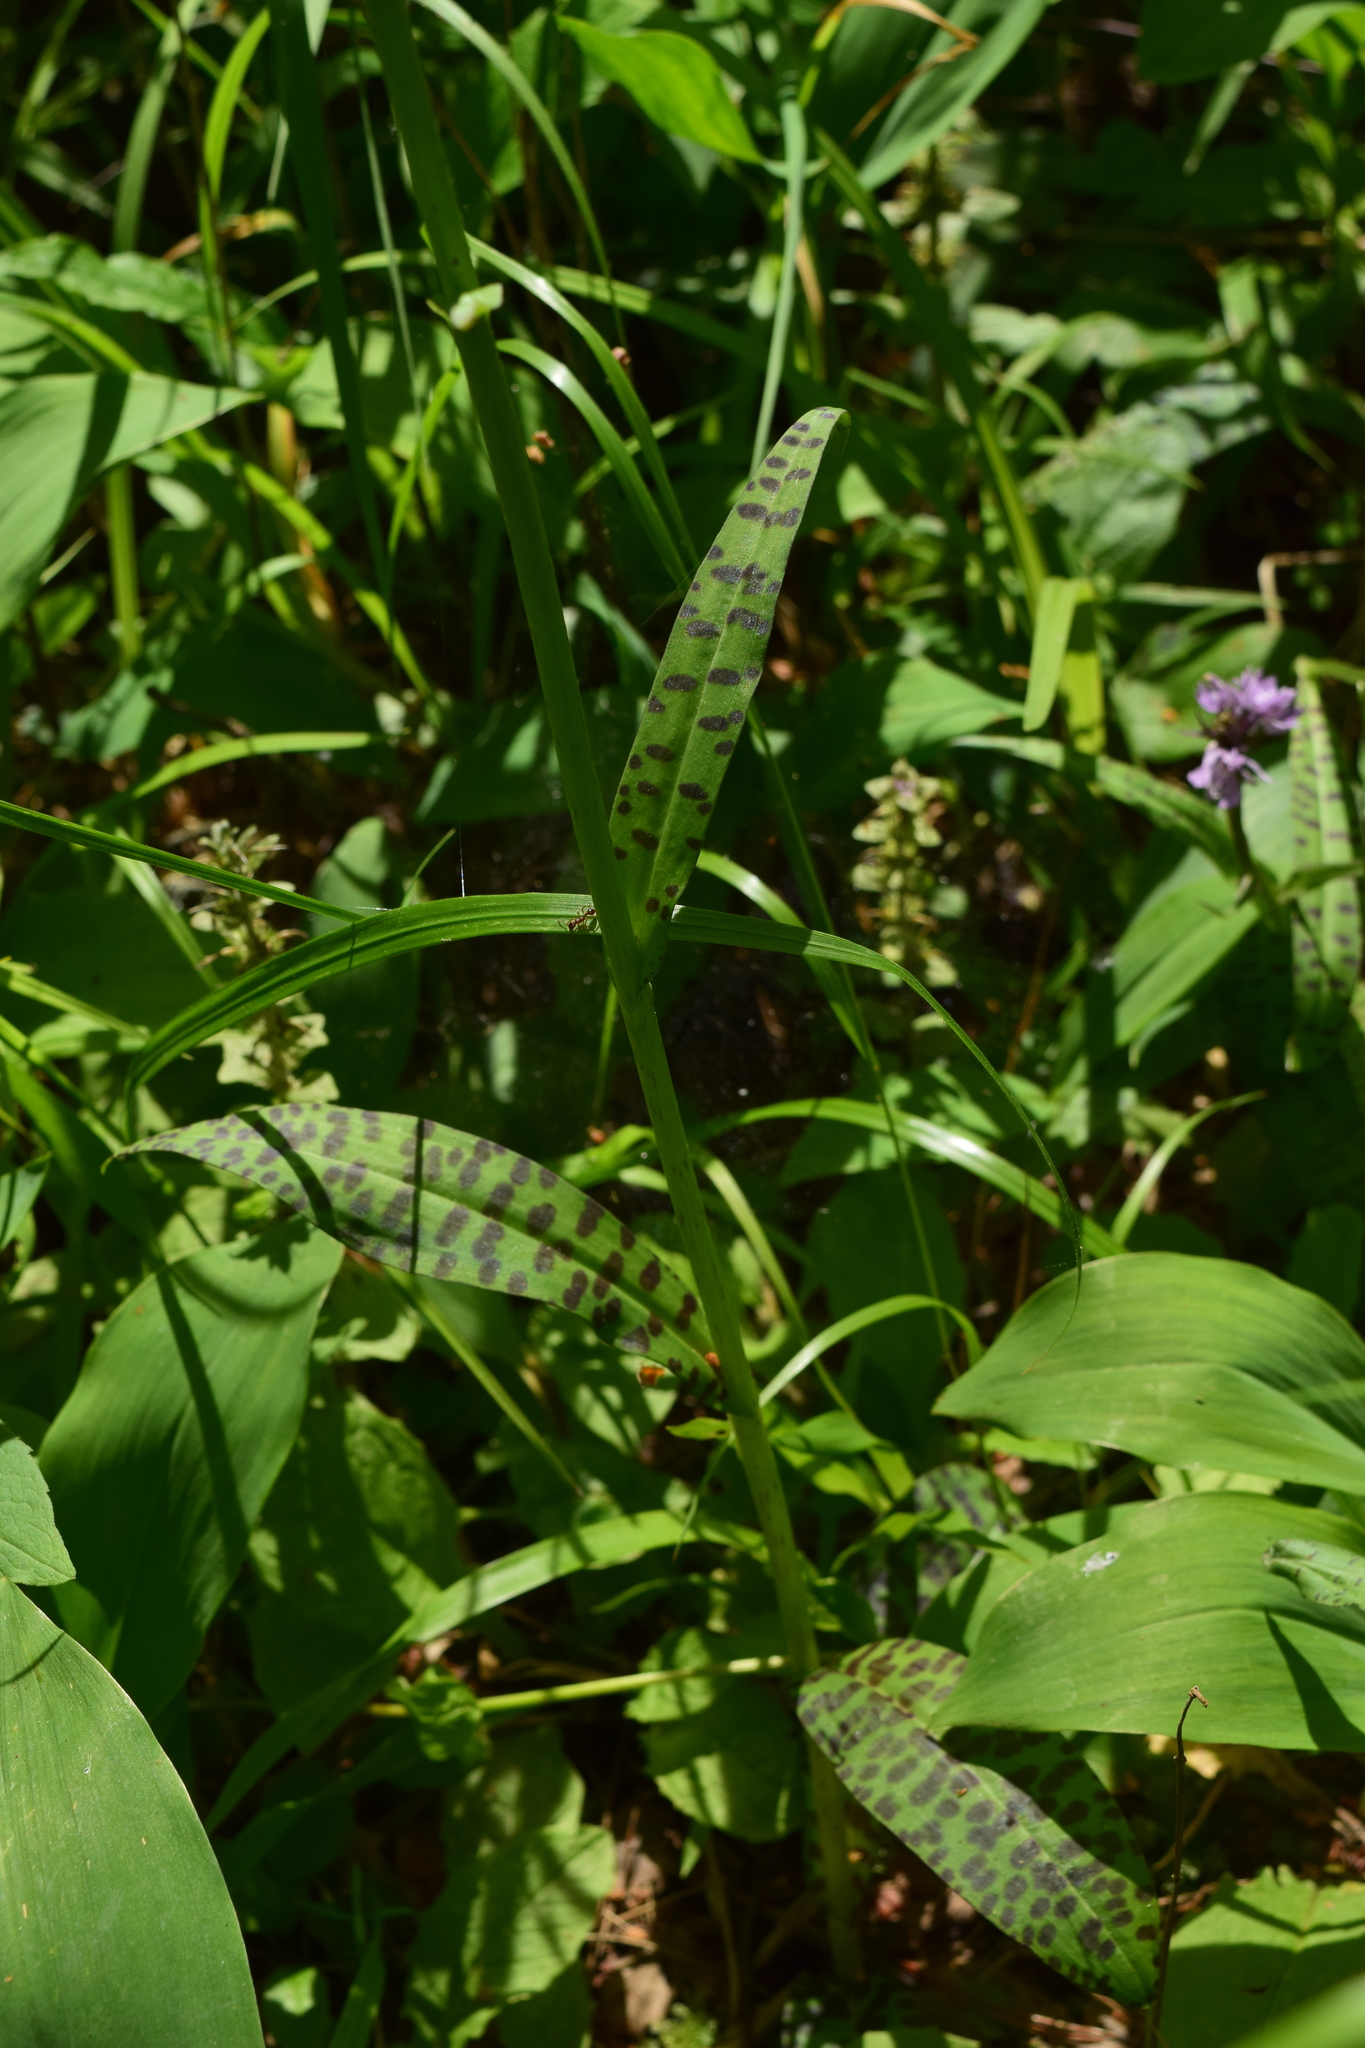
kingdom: Plantae
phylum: Tracheophyta
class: Liliopsida
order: Asparagales
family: Orchidaceae
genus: Dactylorhiza
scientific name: Dactylorhiza maculata
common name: Heath spotted-orchid
